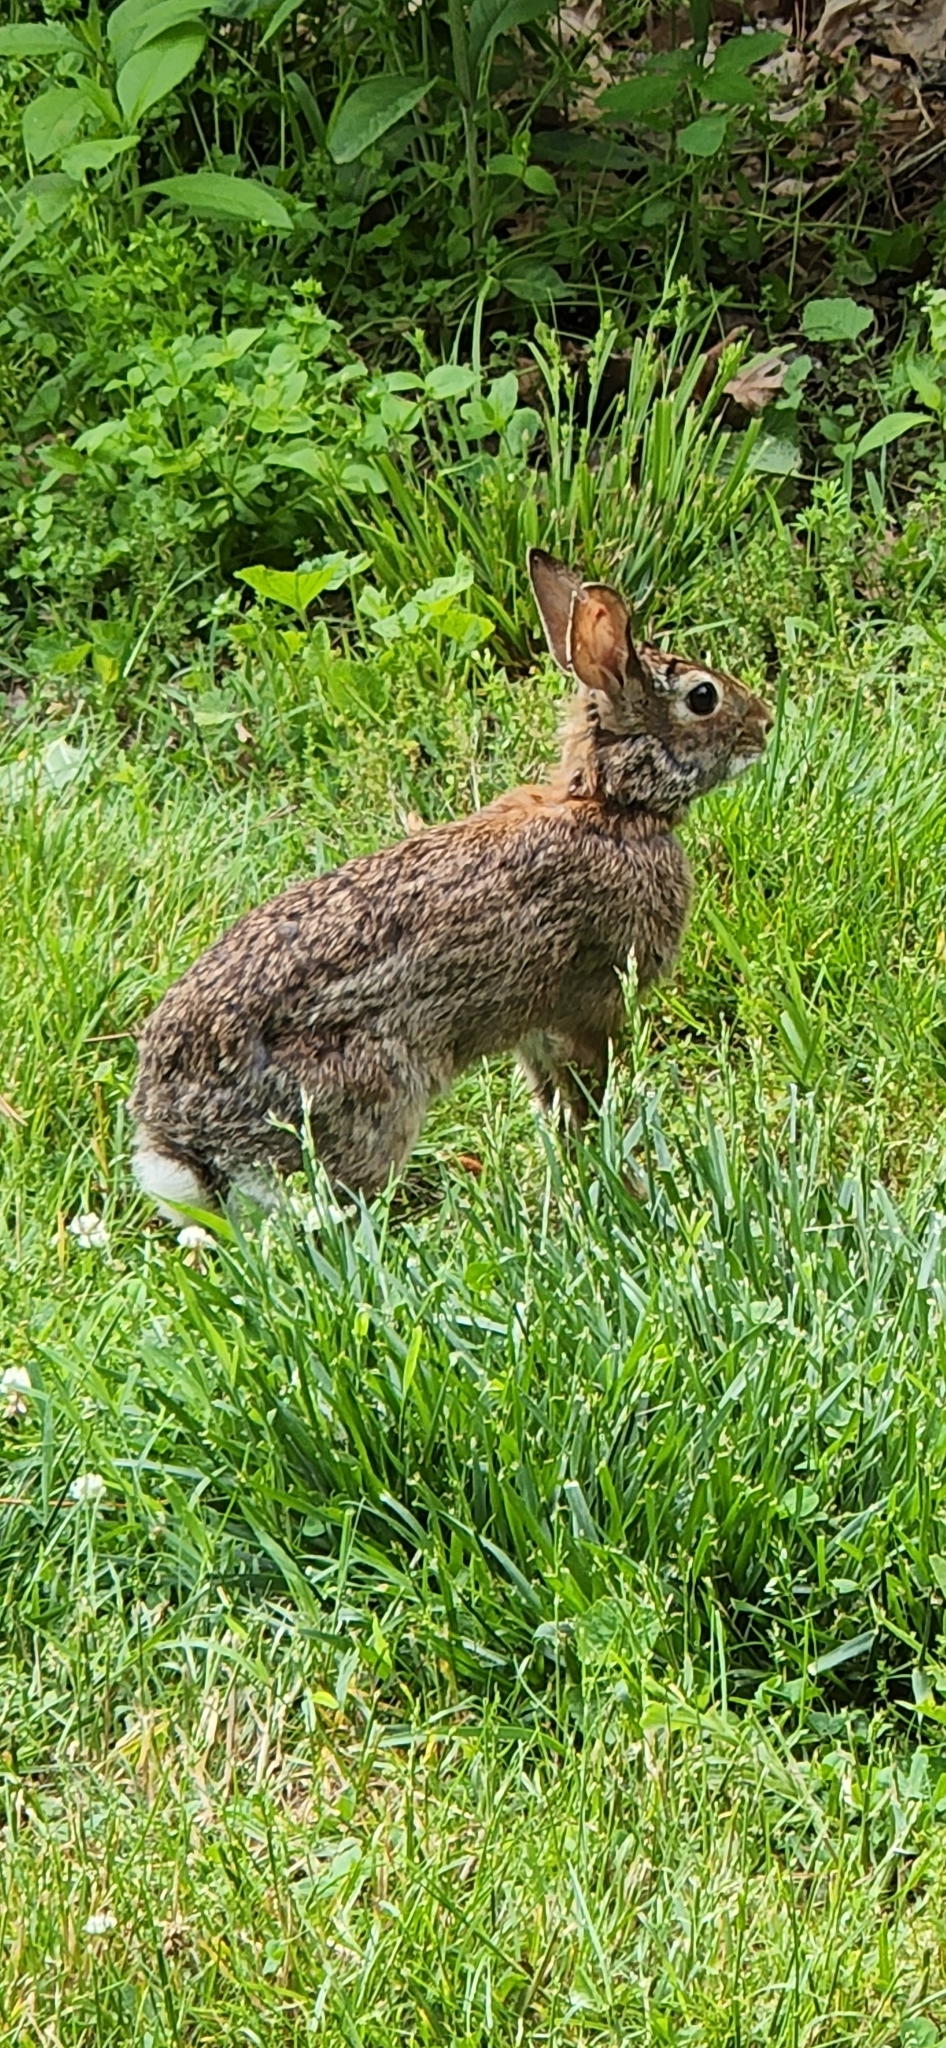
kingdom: Animalia
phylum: Chordata
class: Mammalia
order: Lagomorpha
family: Leporidae
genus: Sylvilagus
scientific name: Sylvilagus floridanus
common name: Eastern cottontail
